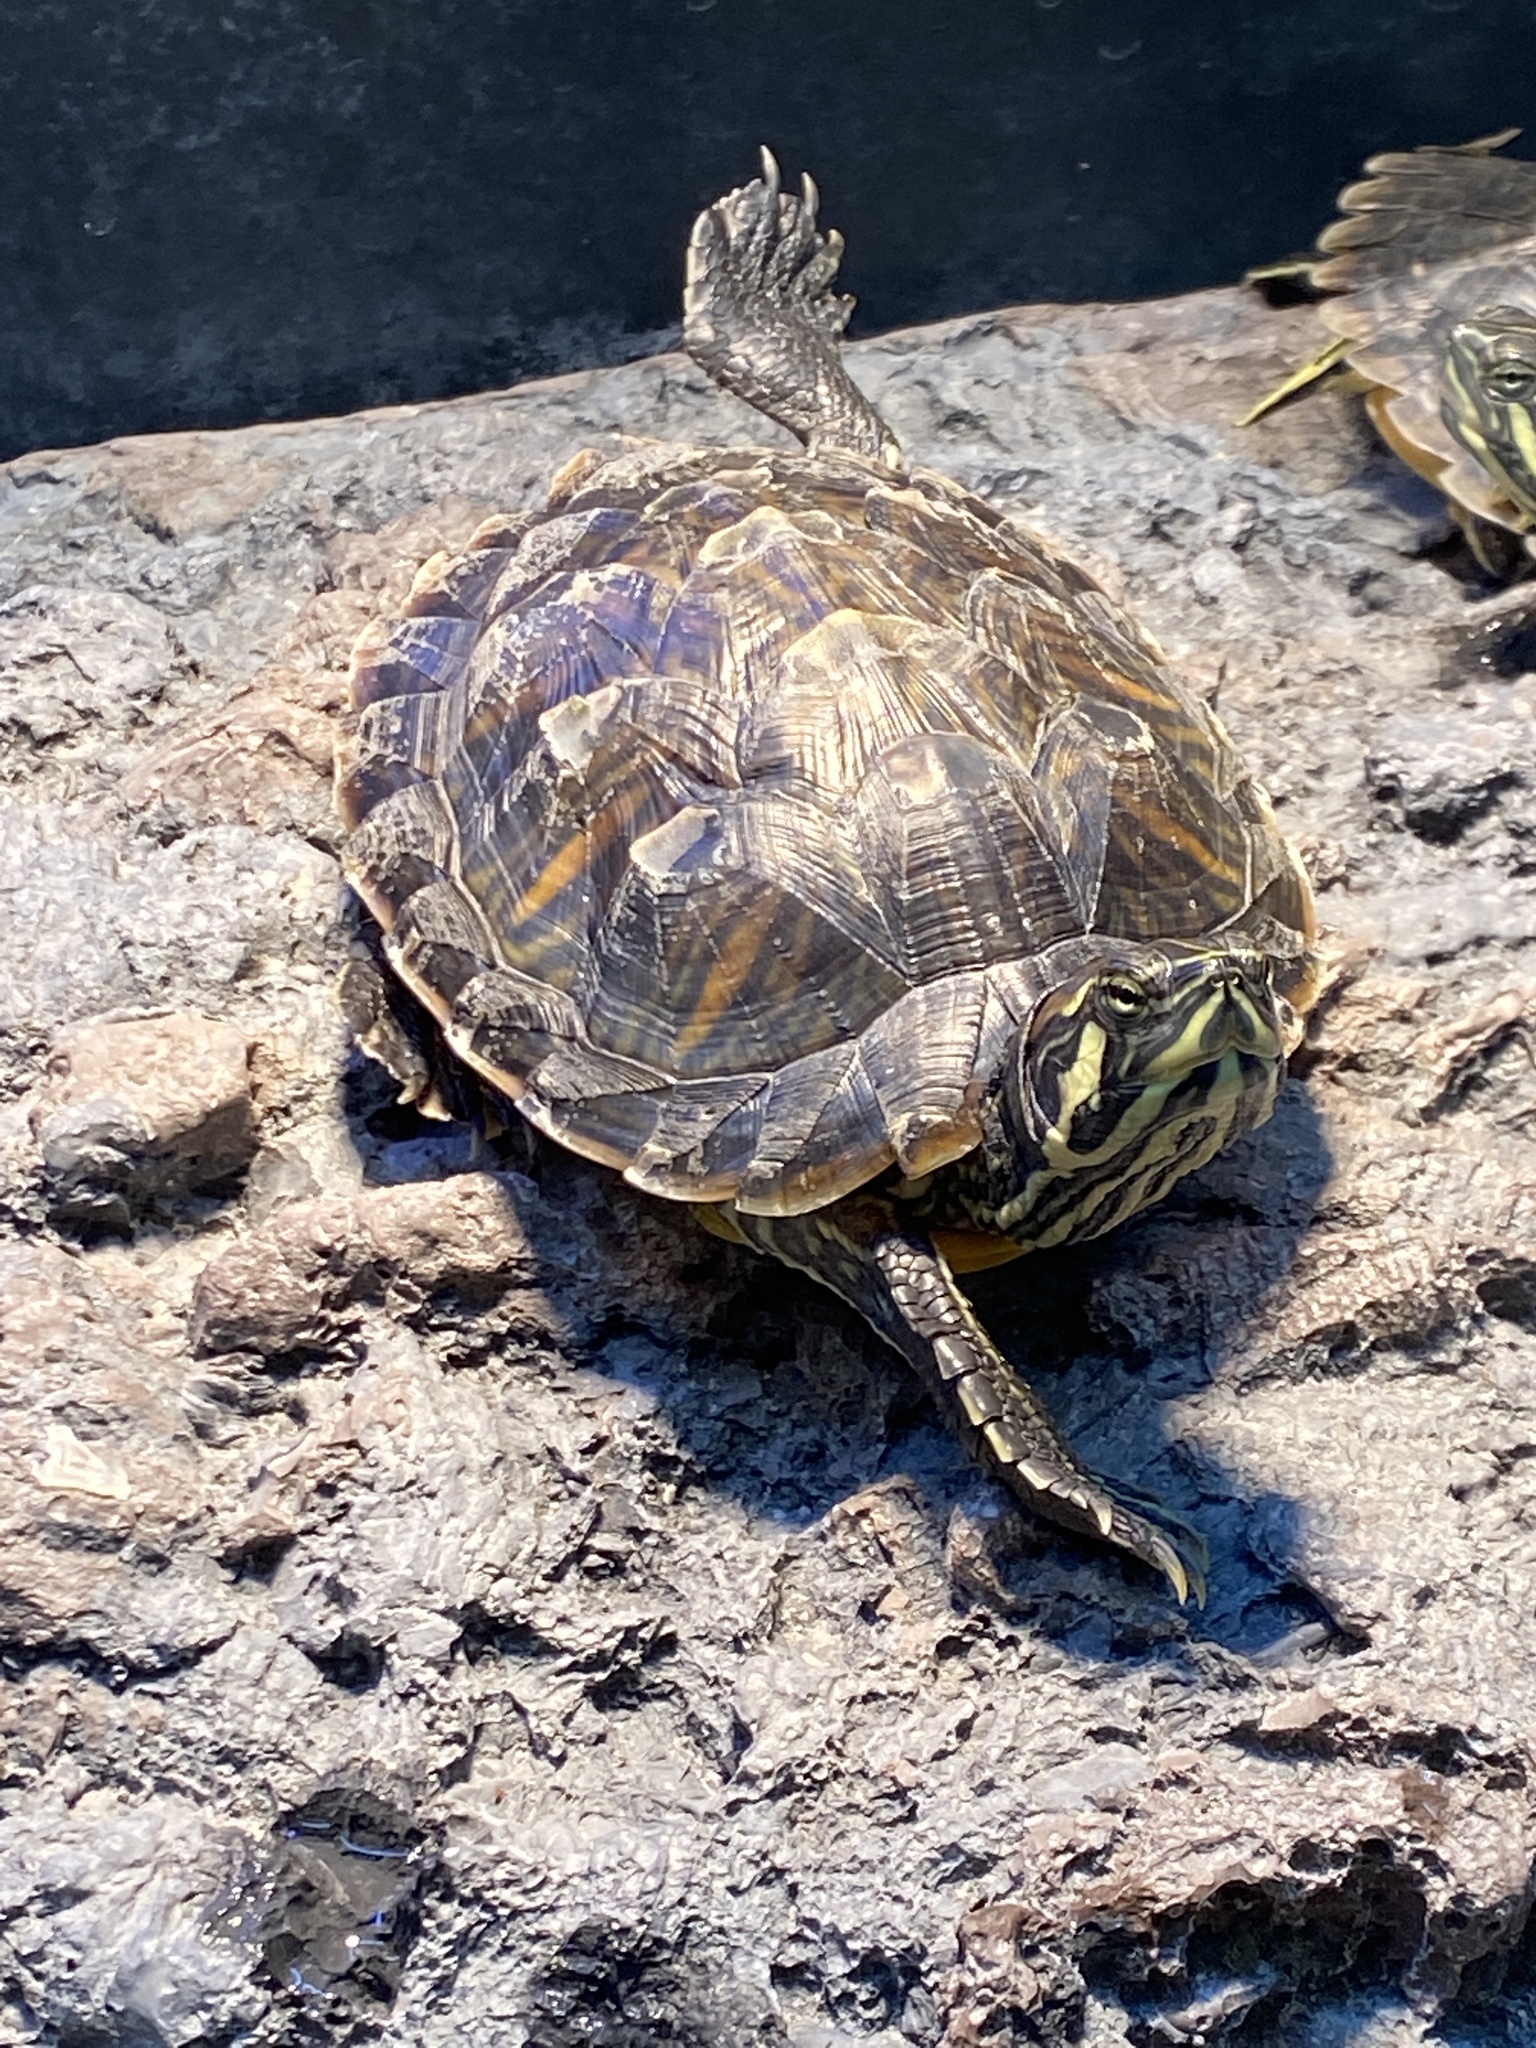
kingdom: Animalia
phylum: Chordata
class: Testudines
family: Emydidae
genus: Trachemys
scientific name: Trachemys scripta
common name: Slider
